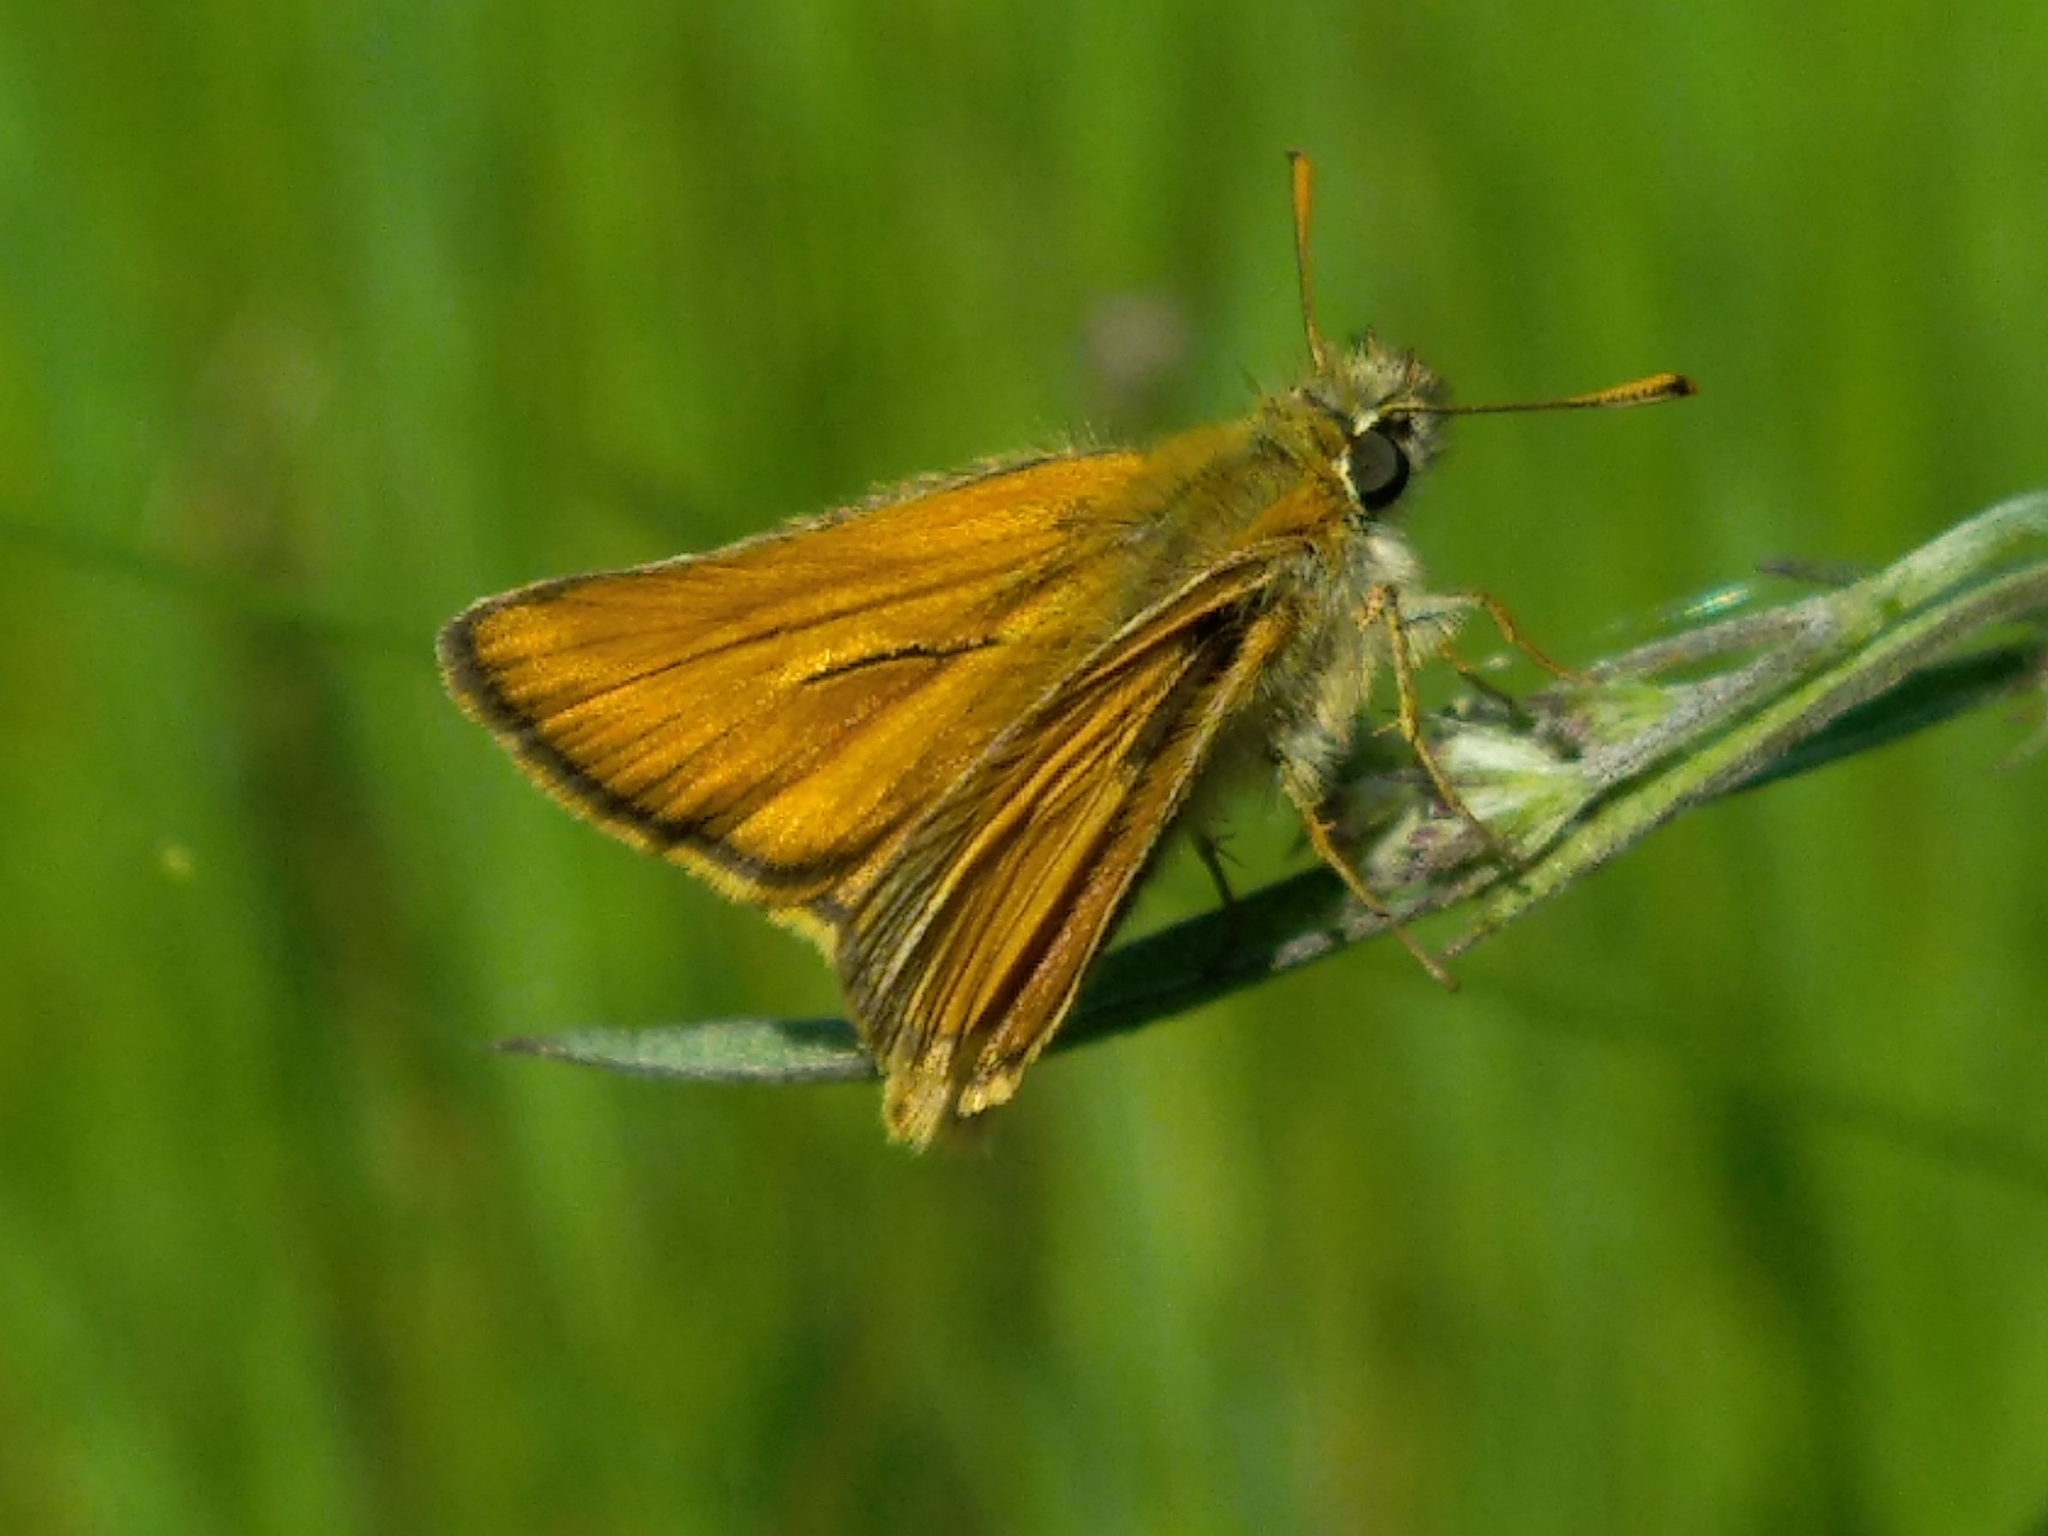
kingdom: Animalia
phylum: Arthropoda
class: Insecta
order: Lepidoptera
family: Hesperiidae
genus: Thymelicus
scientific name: Thymelicus sylvestris
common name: Small skipper
